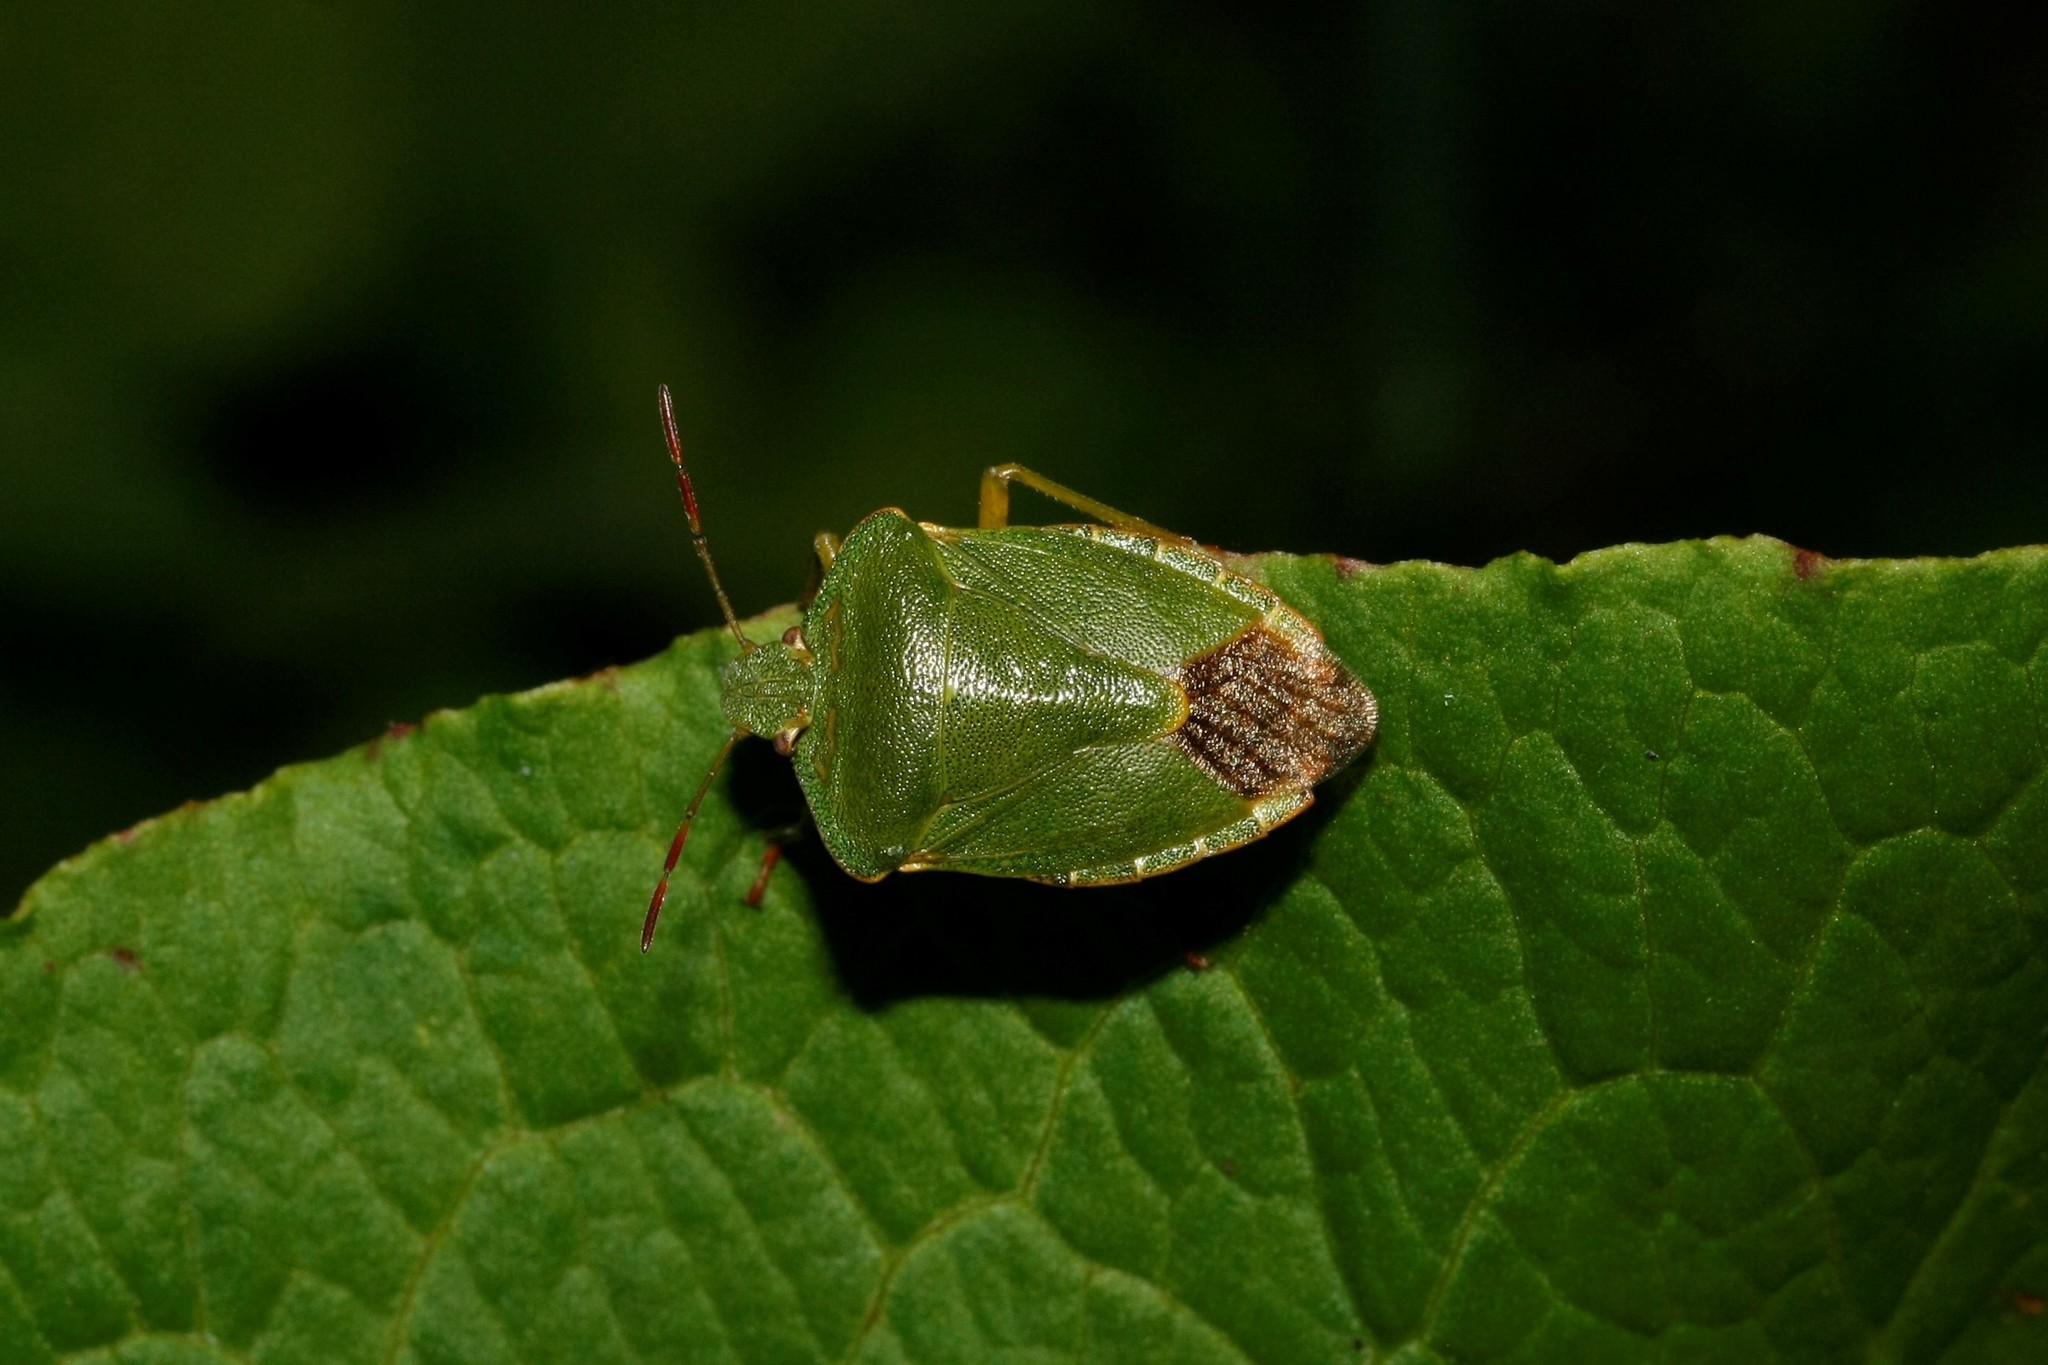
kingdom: Animalia
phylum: Arthropoda
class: Insecta
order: Hemiptera
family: Pentatomidae
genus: Palomena
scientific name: Palomena prasina
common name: Green shieldbug
